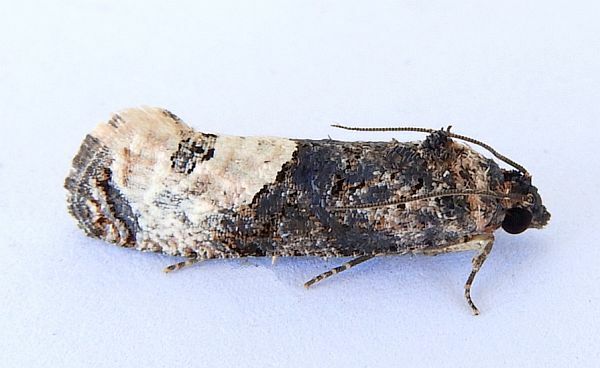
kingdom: Animalia
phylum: Arthropoda
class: Insecta
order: Lepidoptera
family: Tortricidae
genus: Ecdytolopha
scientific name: Ecdytolopha occidentana
